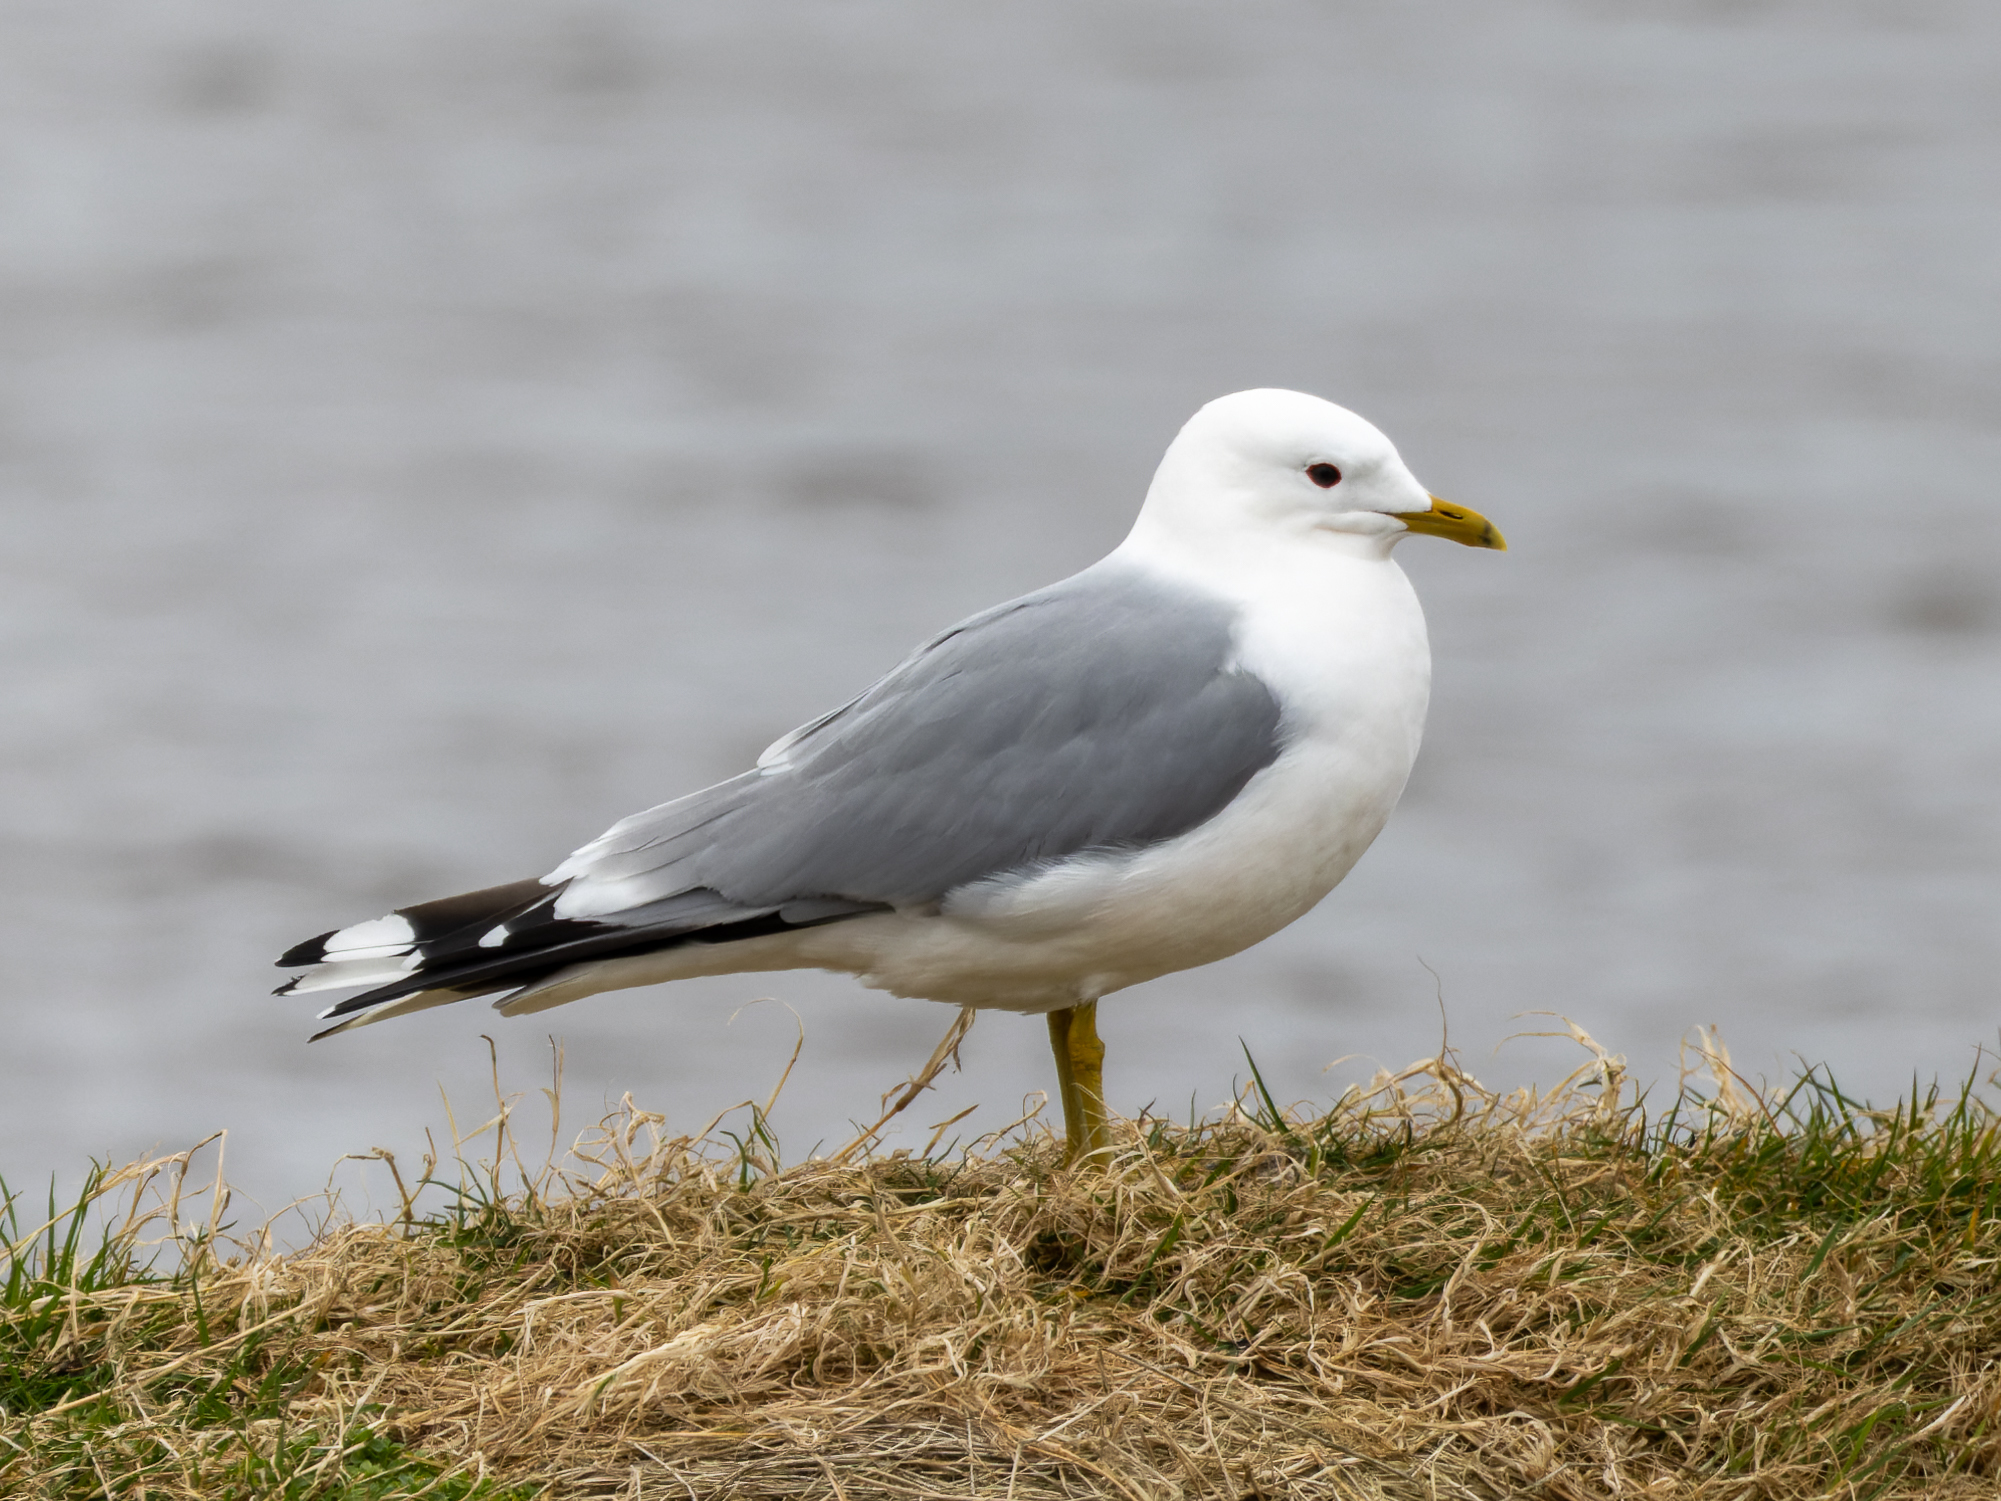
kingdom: Animalia
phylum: Chordata
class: Aves
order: Charadriiformes
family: Laridae
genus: Larus
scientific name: Larus canus
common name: Mew gull
